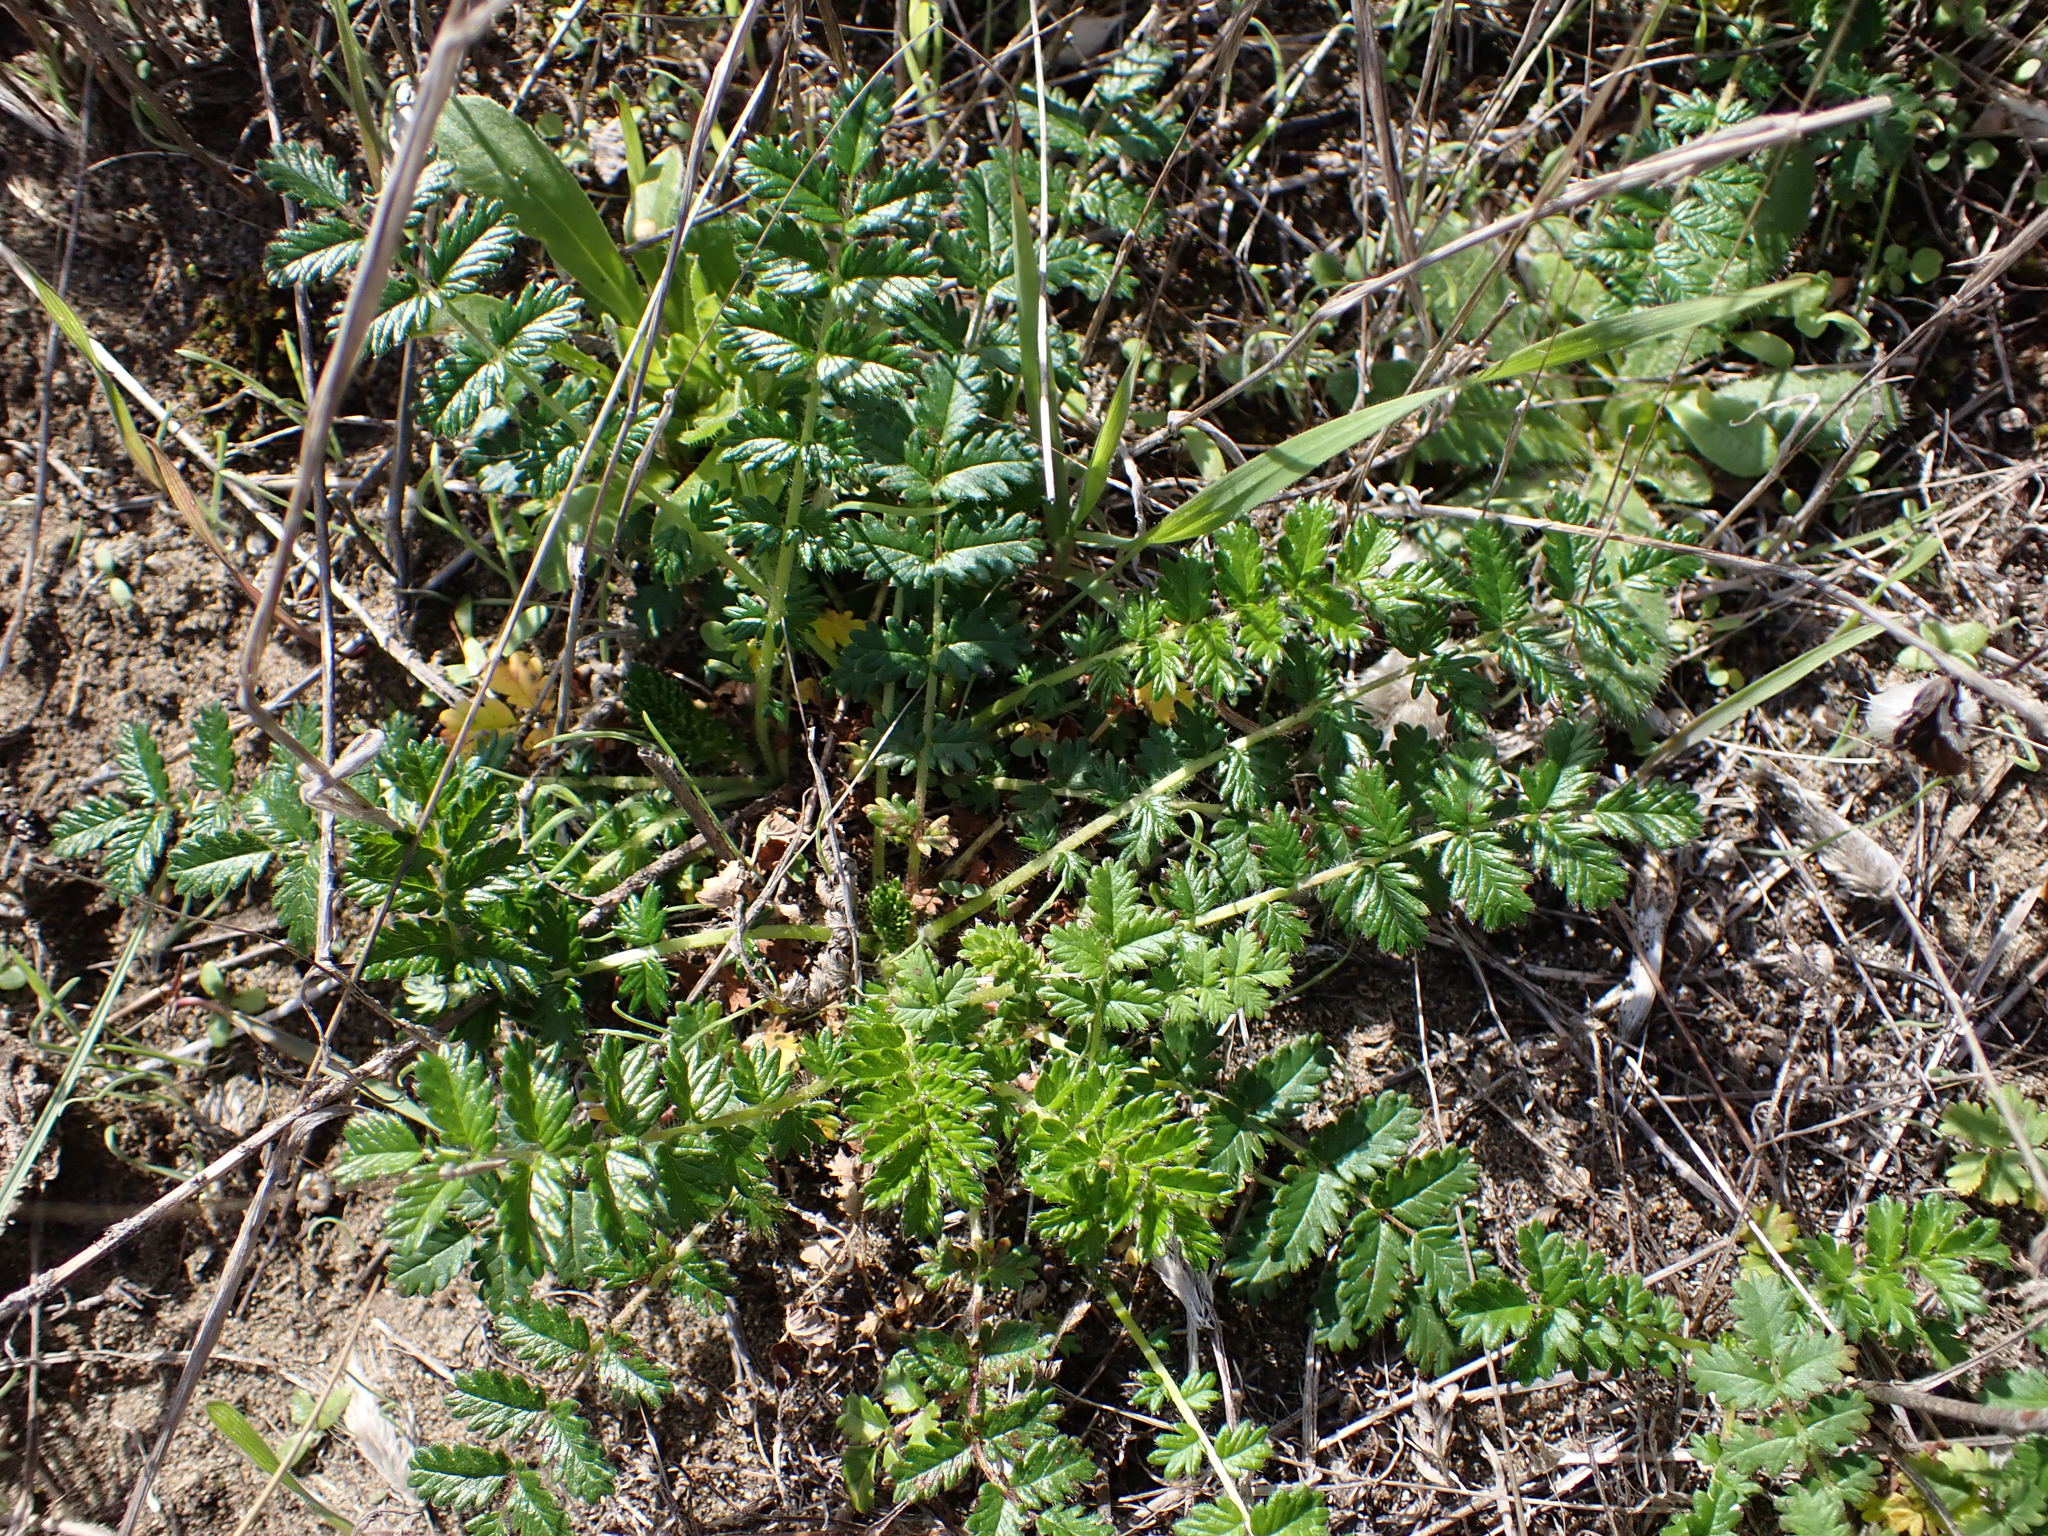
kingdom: Plantae
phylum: Tracheophyta
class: Magnoliopsida
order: Rosales
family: Rosaceae
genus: Acaena
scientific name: Acaena agnipila
